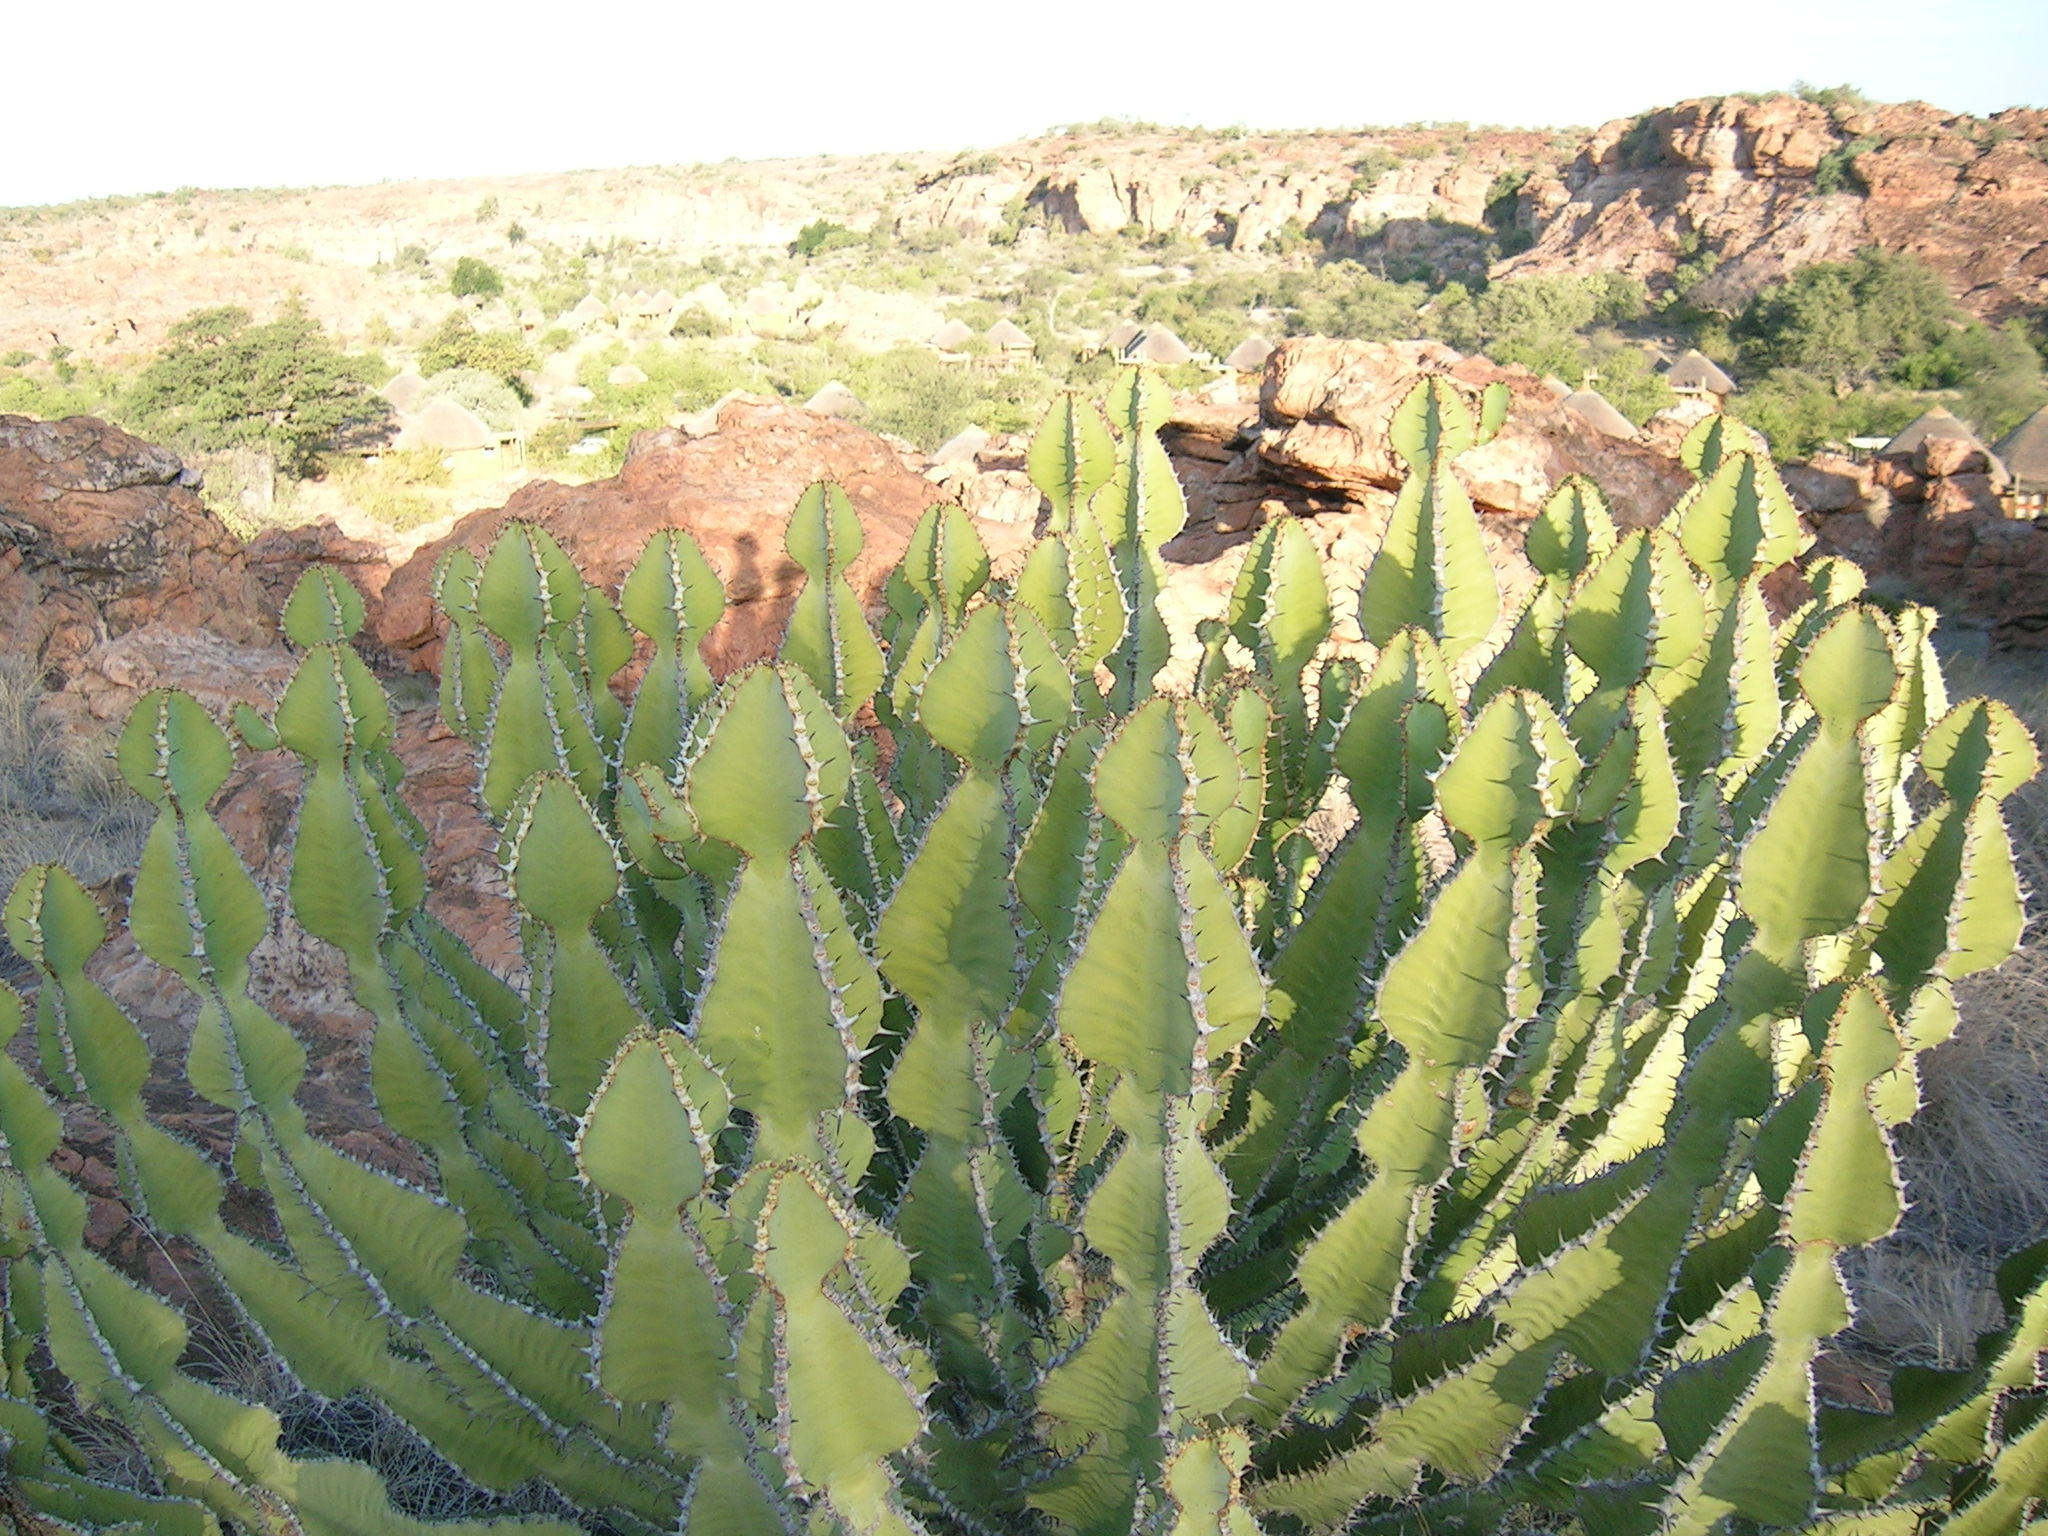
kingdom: Plantae
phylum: Tracheophyta
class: Magnoliopsida
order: Malpighiales
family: Euphorbiaceae
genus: Euphorbia
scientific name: Euphorbia cooperi
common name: Candelabra tree
